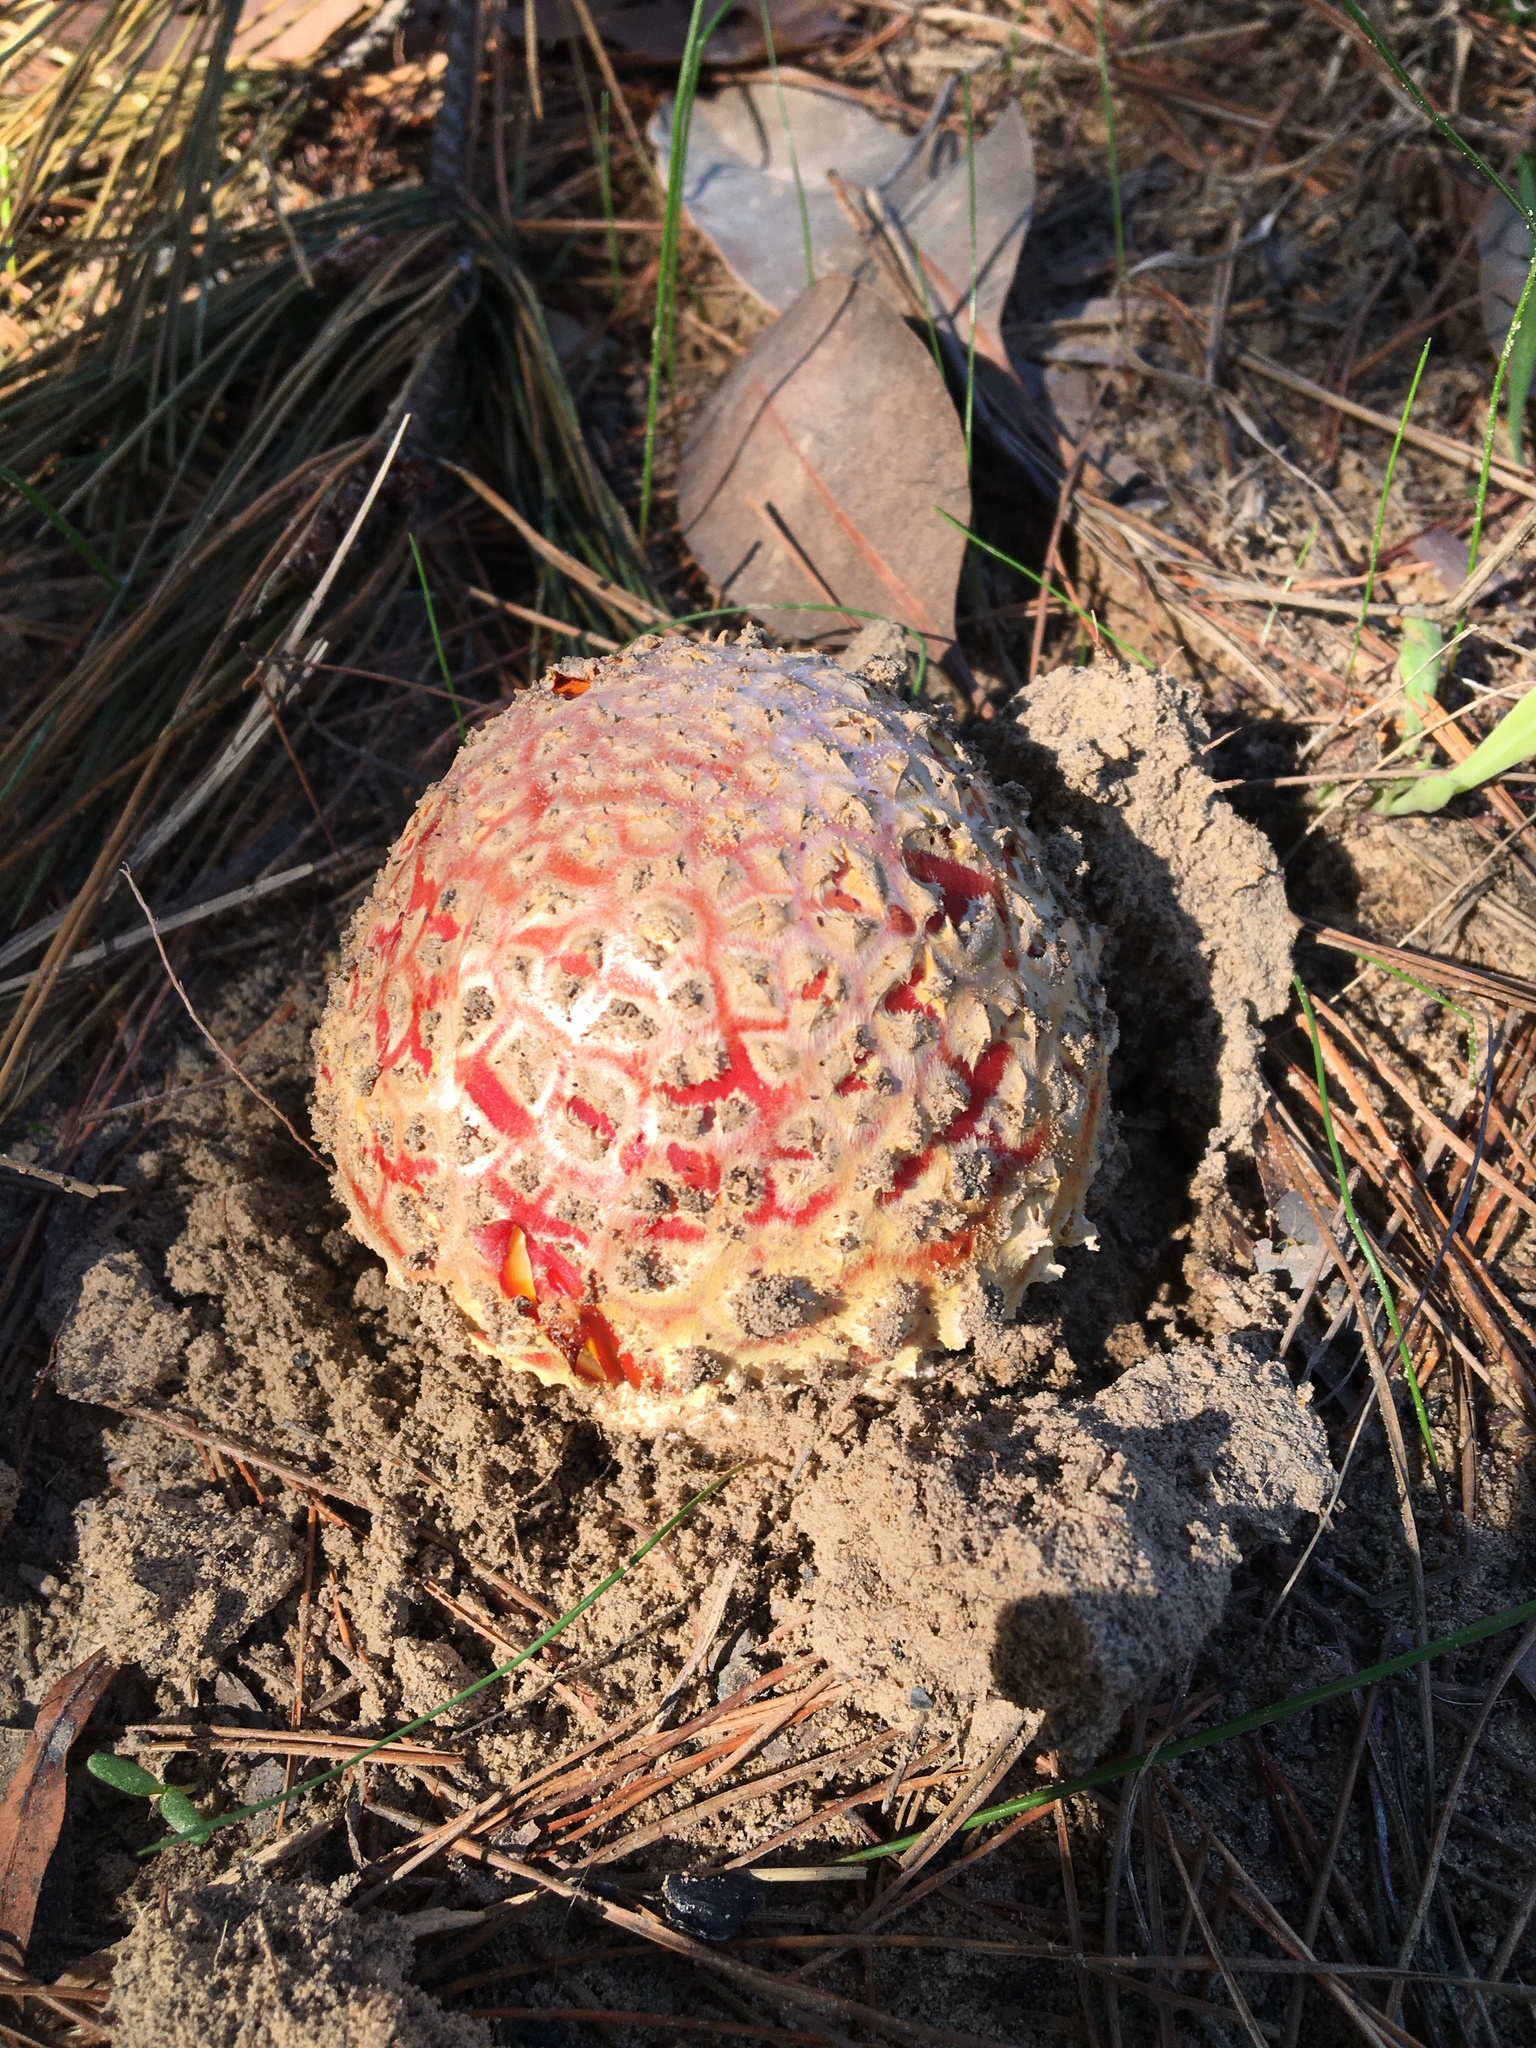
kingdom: Fungi
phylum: Basidiomycota
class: Agaricomycetes
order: Agaricales
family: Amanitaceae
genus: Amanita
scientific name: Amanita muscaria
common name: Fly agaric
